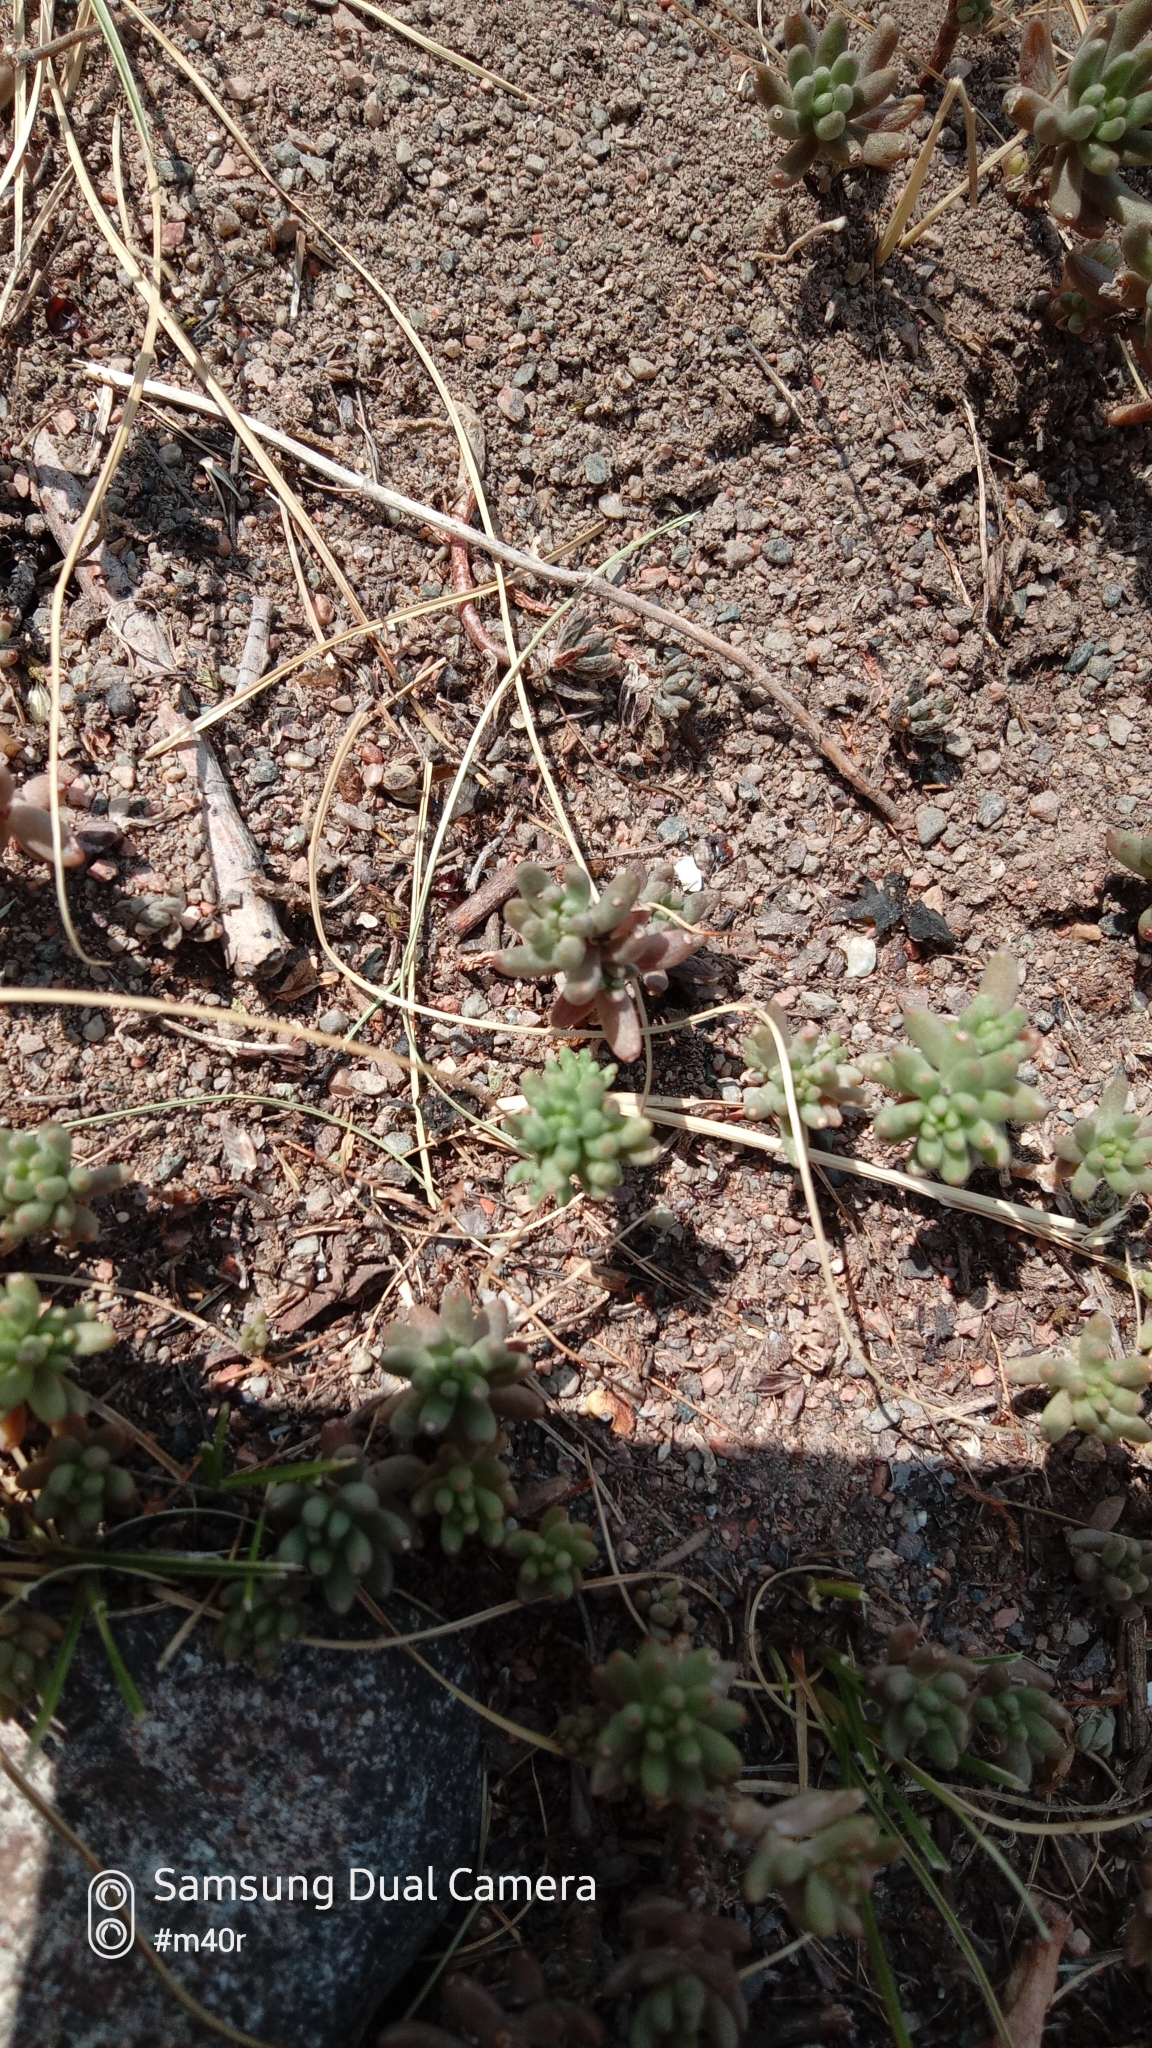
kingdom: Plantae
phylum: Tracheophyta
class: Magnoliopsida
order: Saxifragales
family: Crassulaceae
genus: Pseudosedum
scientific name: Pseudosedum affine
